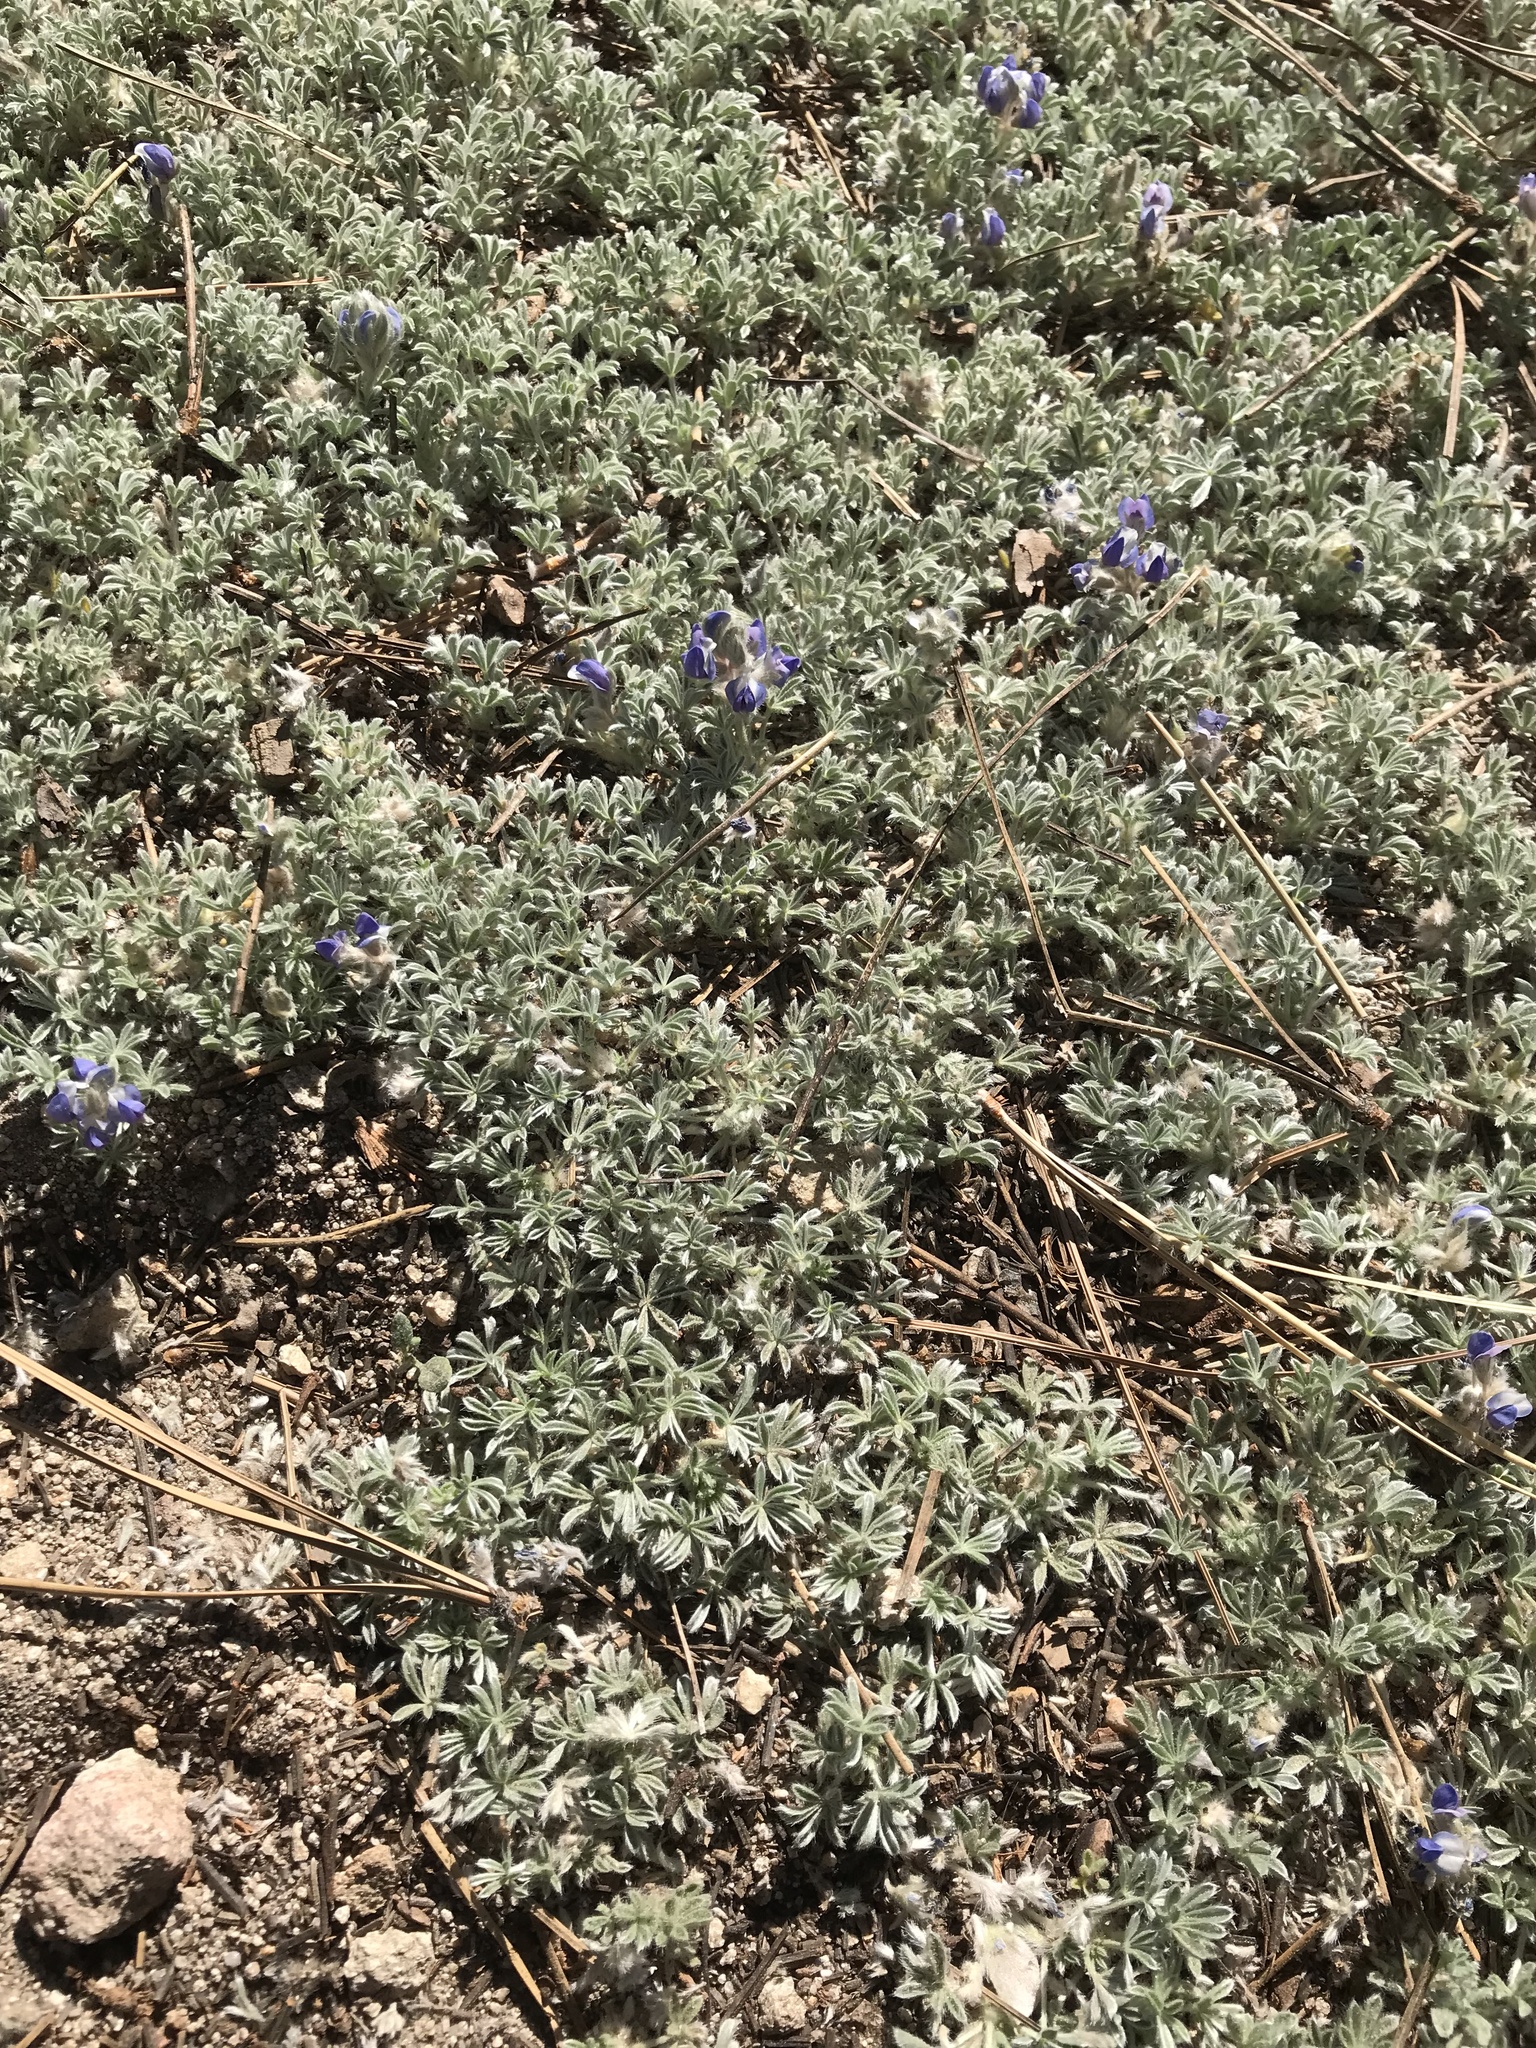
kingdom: Plantae
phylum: Tracheophyta
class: Magnoliopsida
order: Fabales
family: Fabaceae
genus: Lupinus
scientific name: Lupinus breweri
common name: Brewer's lupine
